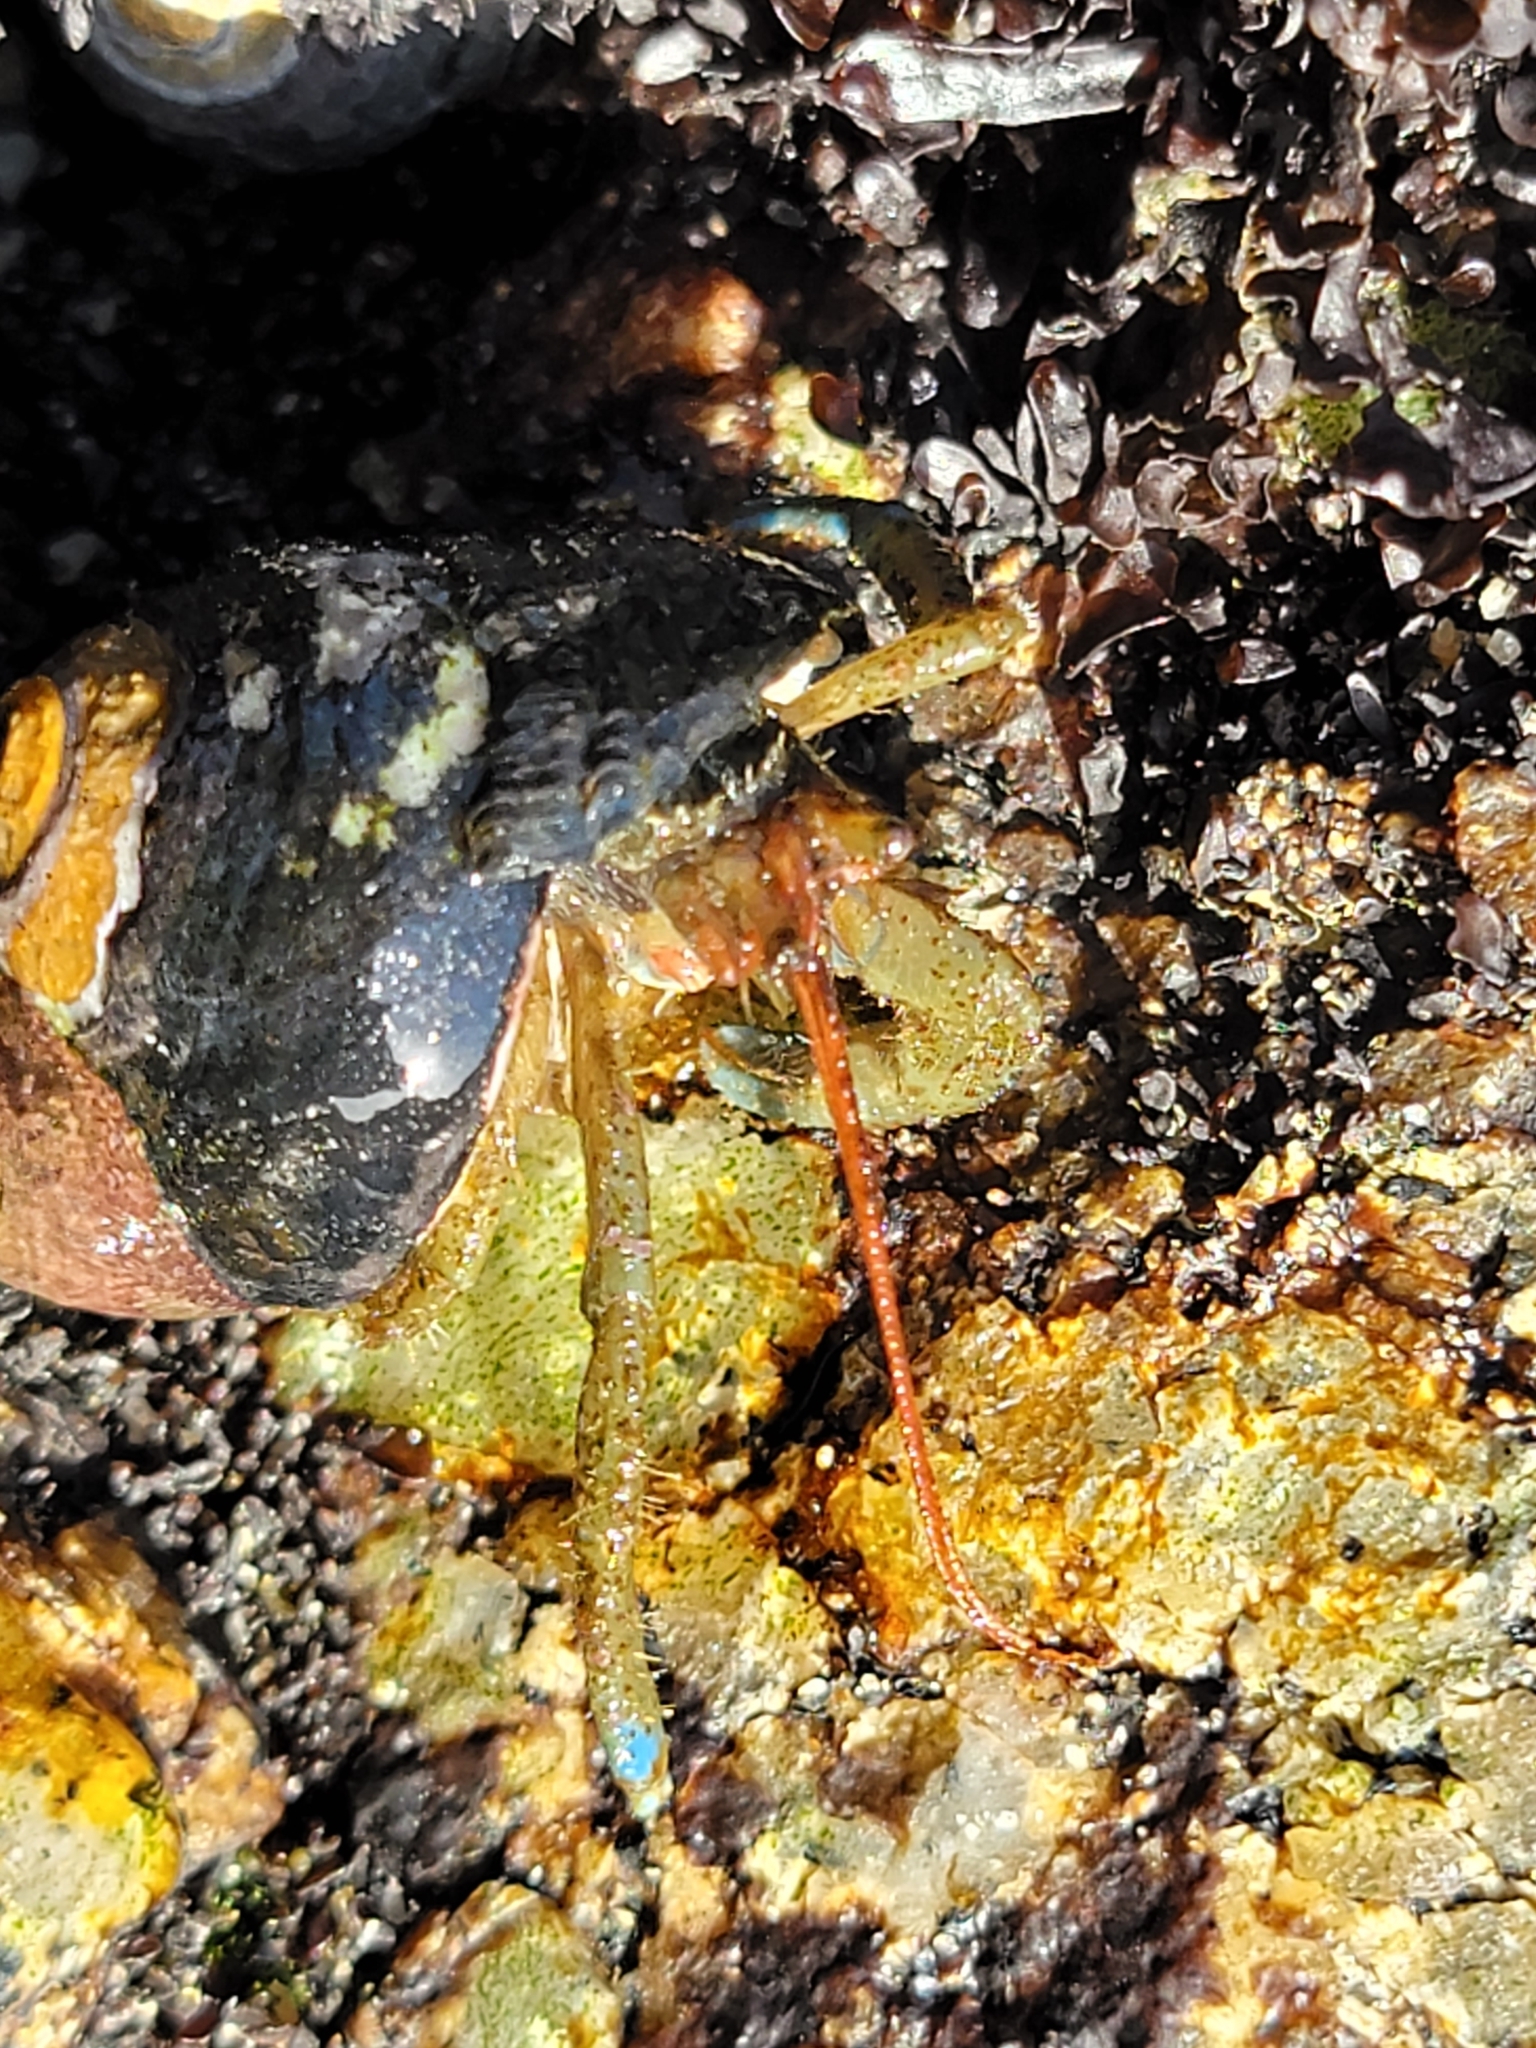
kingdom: Animalia
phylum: Arthropoda
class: Malacostraca
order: Decapoda
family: Paguridae
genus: Pagurus
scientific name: Pagurus samuelis
